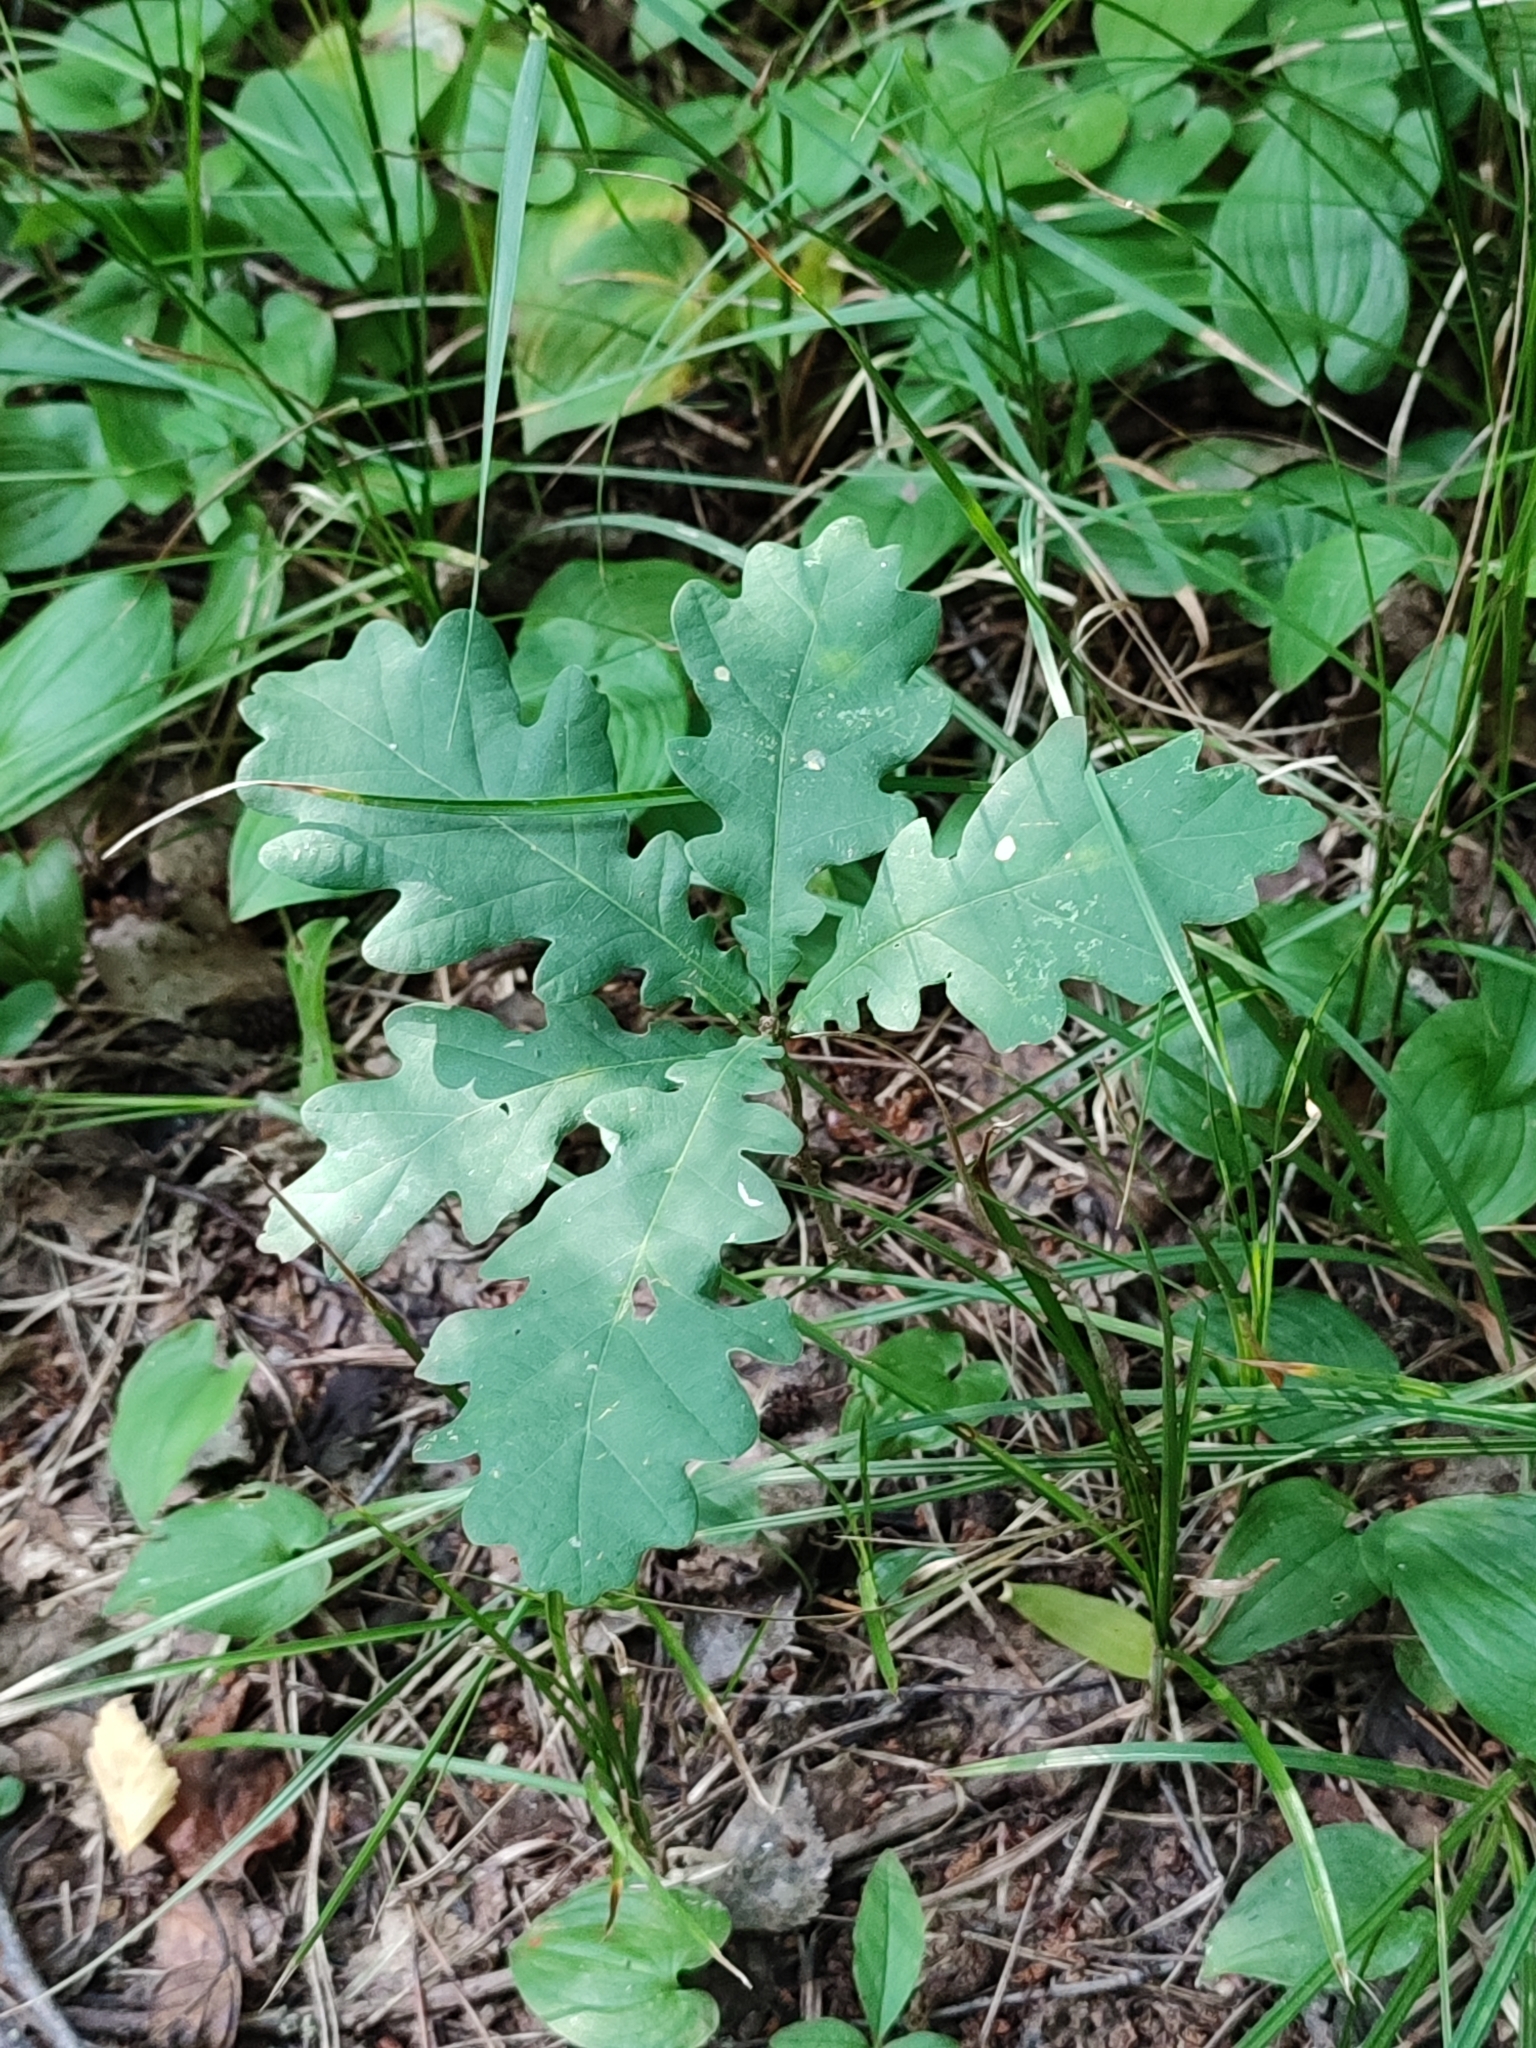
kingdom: Plantae
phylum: Tracheophyta
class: Magnoliopsida
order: Fagales
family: Fagaceae
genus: Quercus
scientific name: Quercus robur
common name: Pedunculate oak
